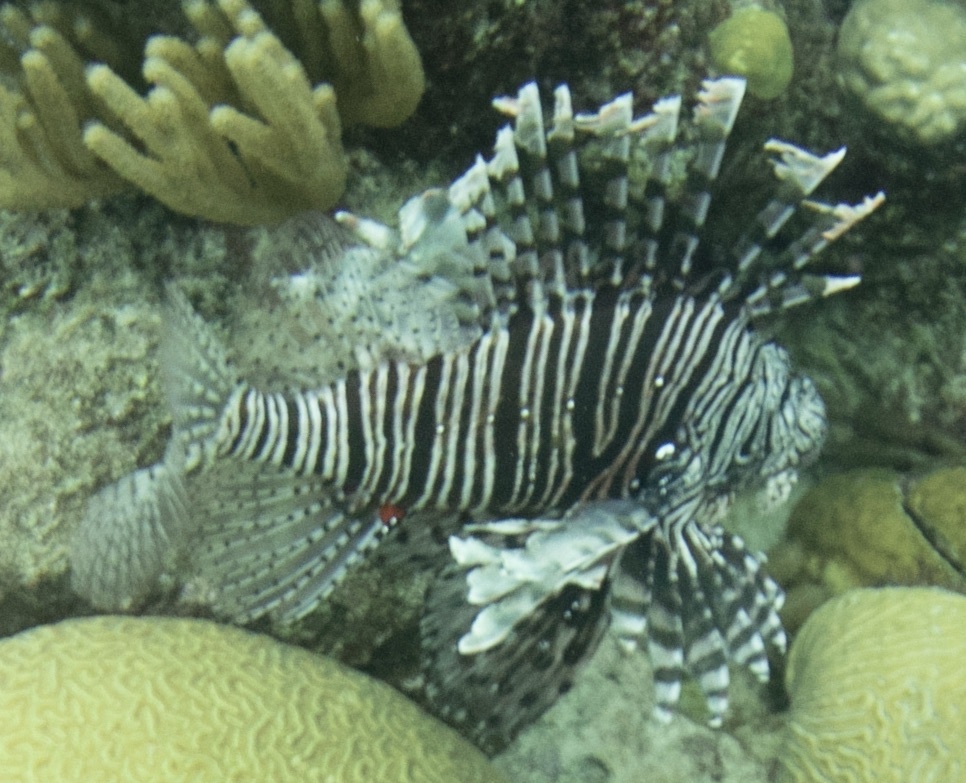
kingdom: Animalia
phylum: Chordata
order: Scorpaeniformes
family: Scorpaenidae
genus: Pterois
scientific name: Pterois volitans
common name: Lionfish
